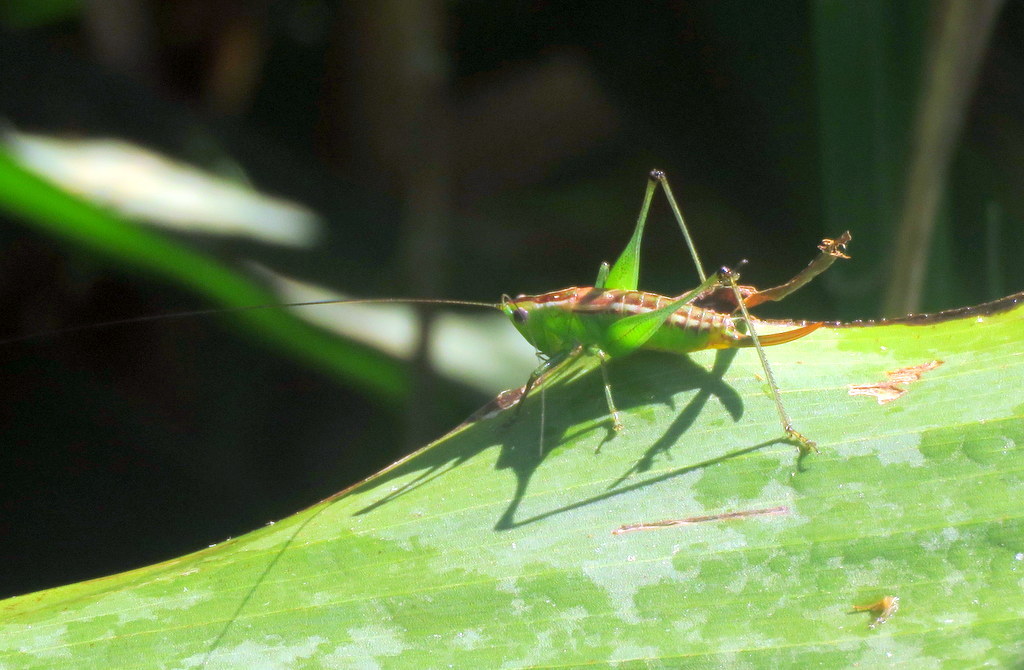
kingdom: Animalia
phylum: Arthropoda
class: Insecta
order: Orthoptera
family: Tettigoniidae
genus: Conocephalus
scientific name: Conocephalus ochrotelus
